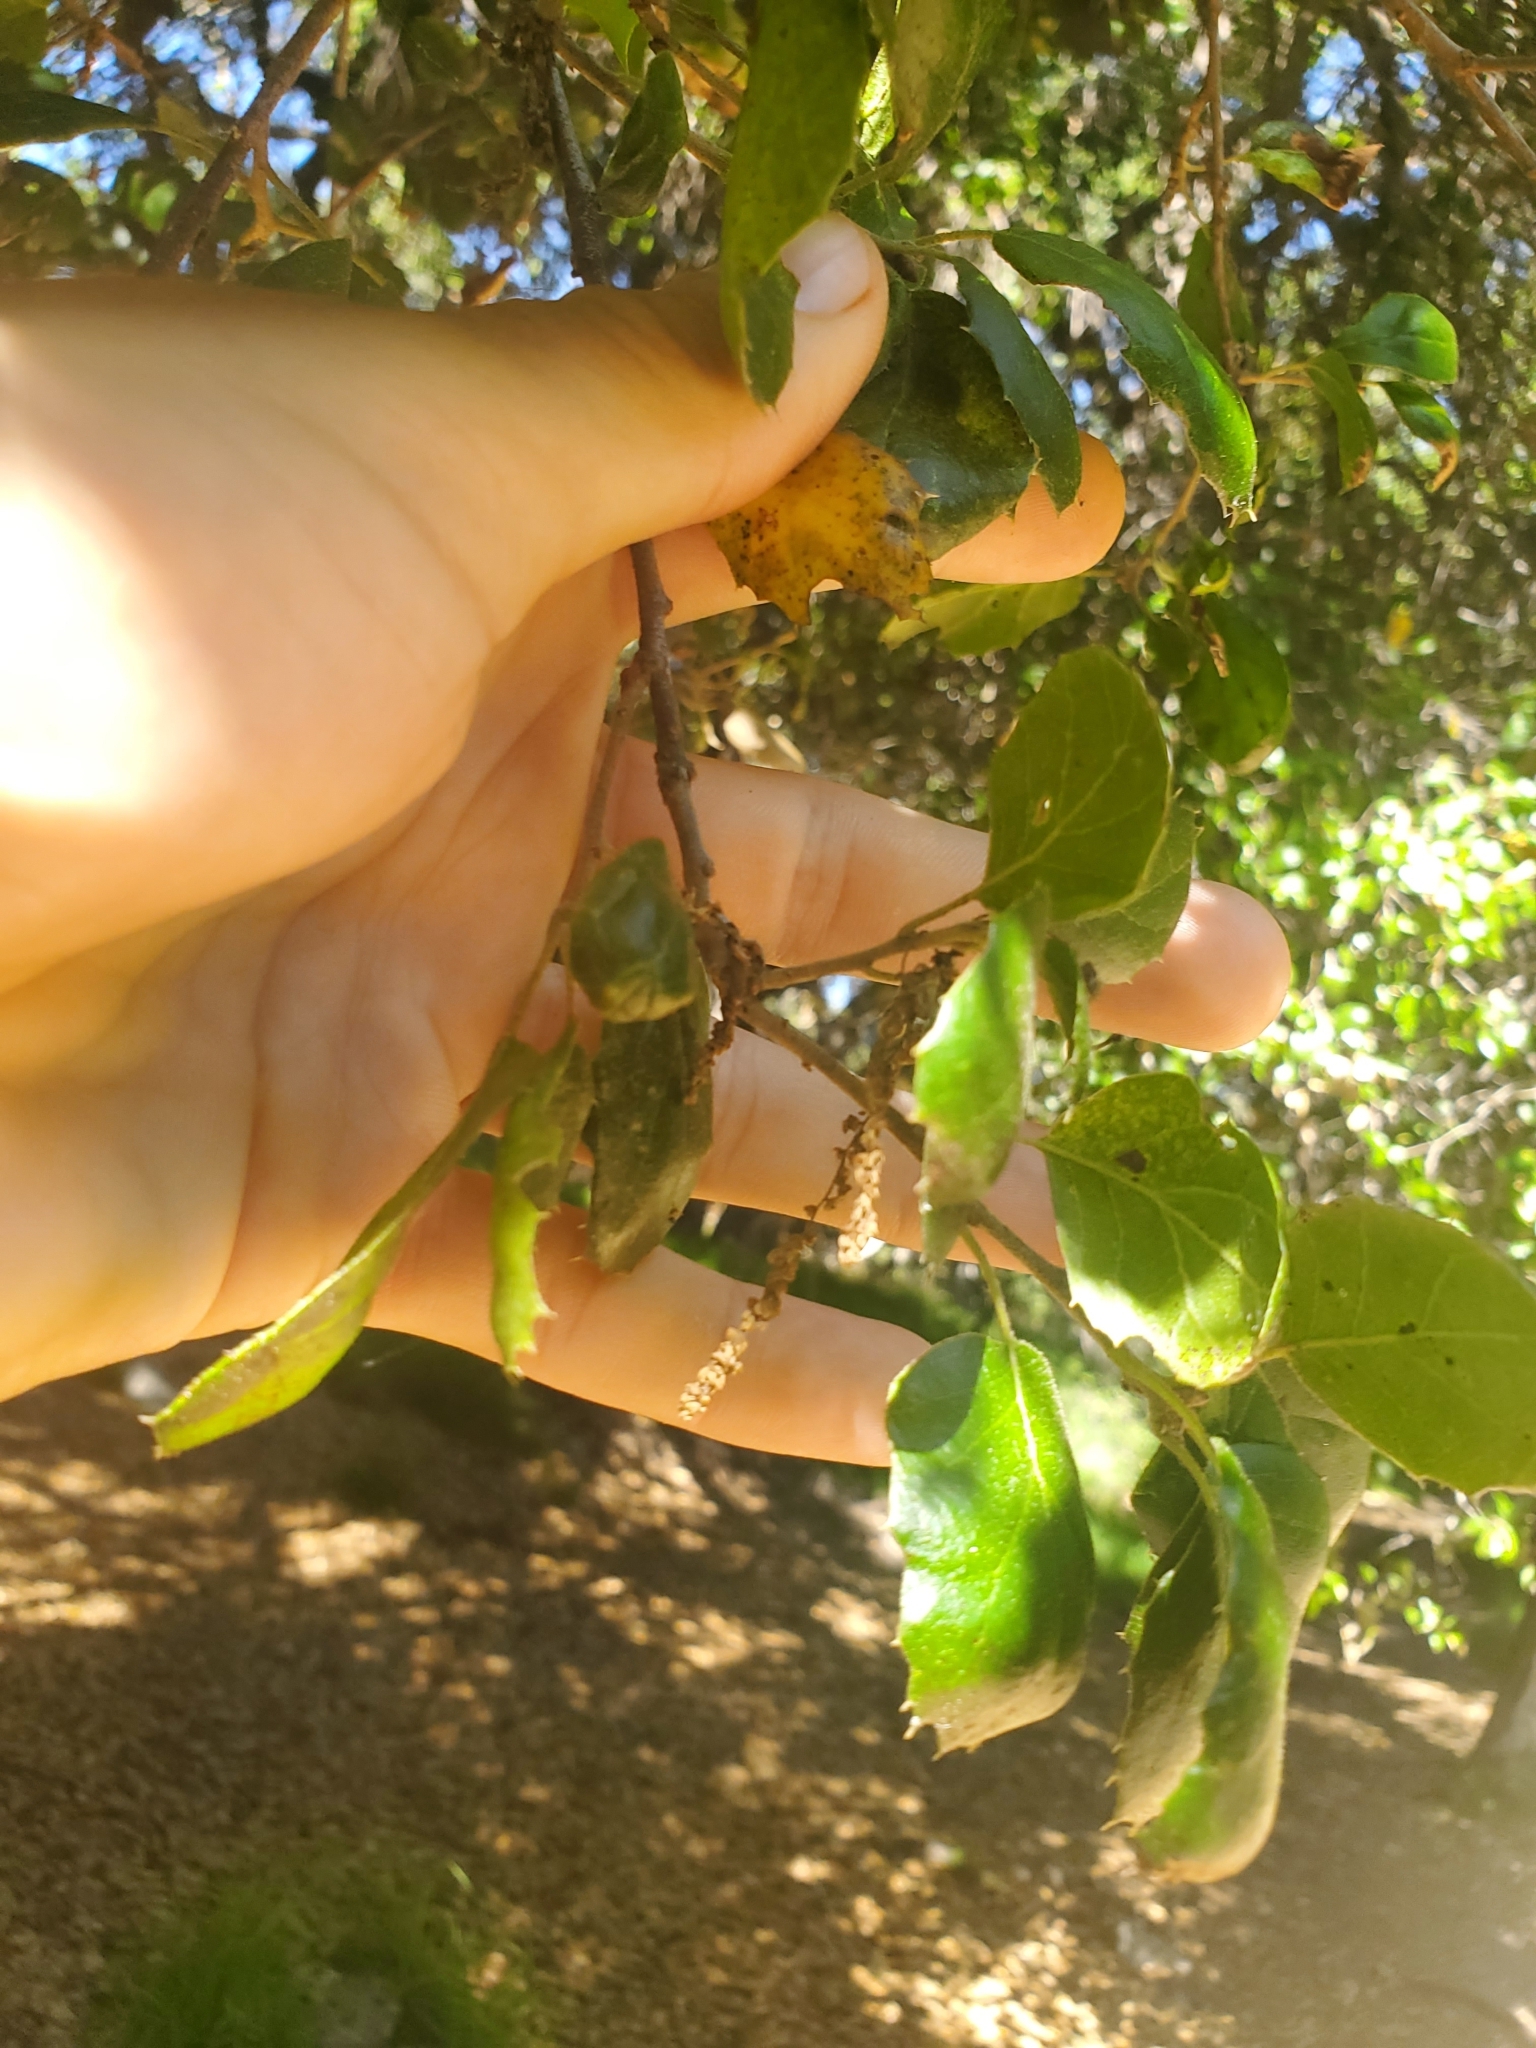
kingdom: Plantae
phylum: Tracheophyta
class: Magnoliopsida
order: Fagales
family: Fagaceae
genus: Quercus
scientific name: Quercus agrifolia
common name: California live oak
